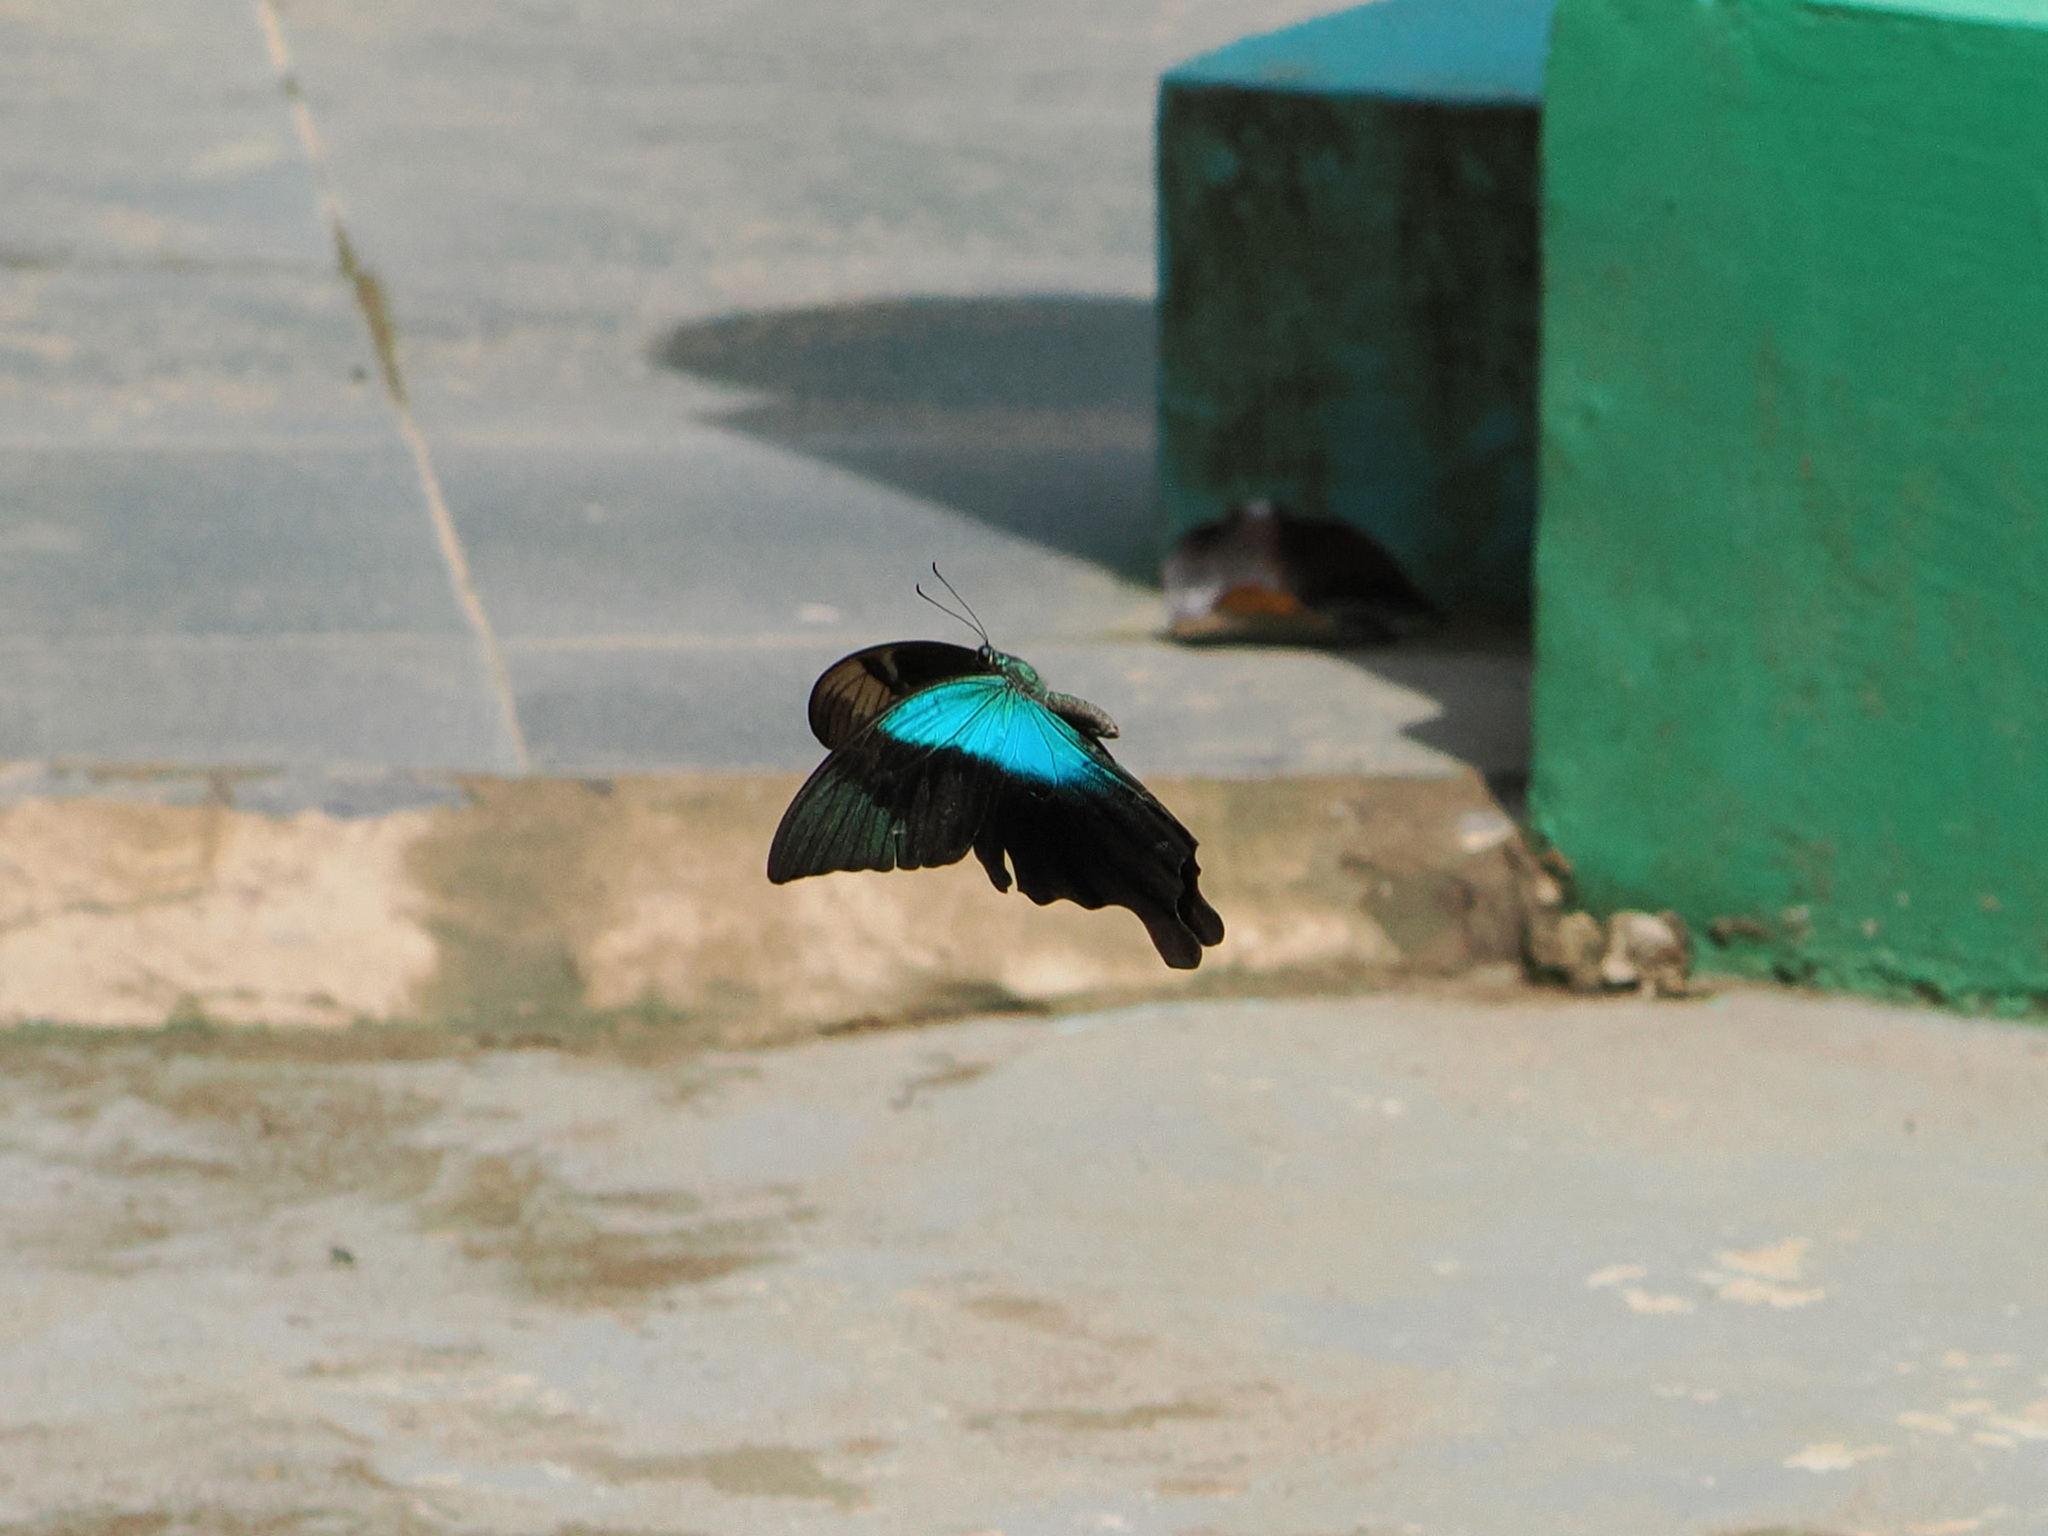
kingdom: Animalia
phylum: Arthropoda
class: Insecta
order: Lepidoptera
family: Papilionidae
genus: Papilio
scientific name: Papilio peranthus
